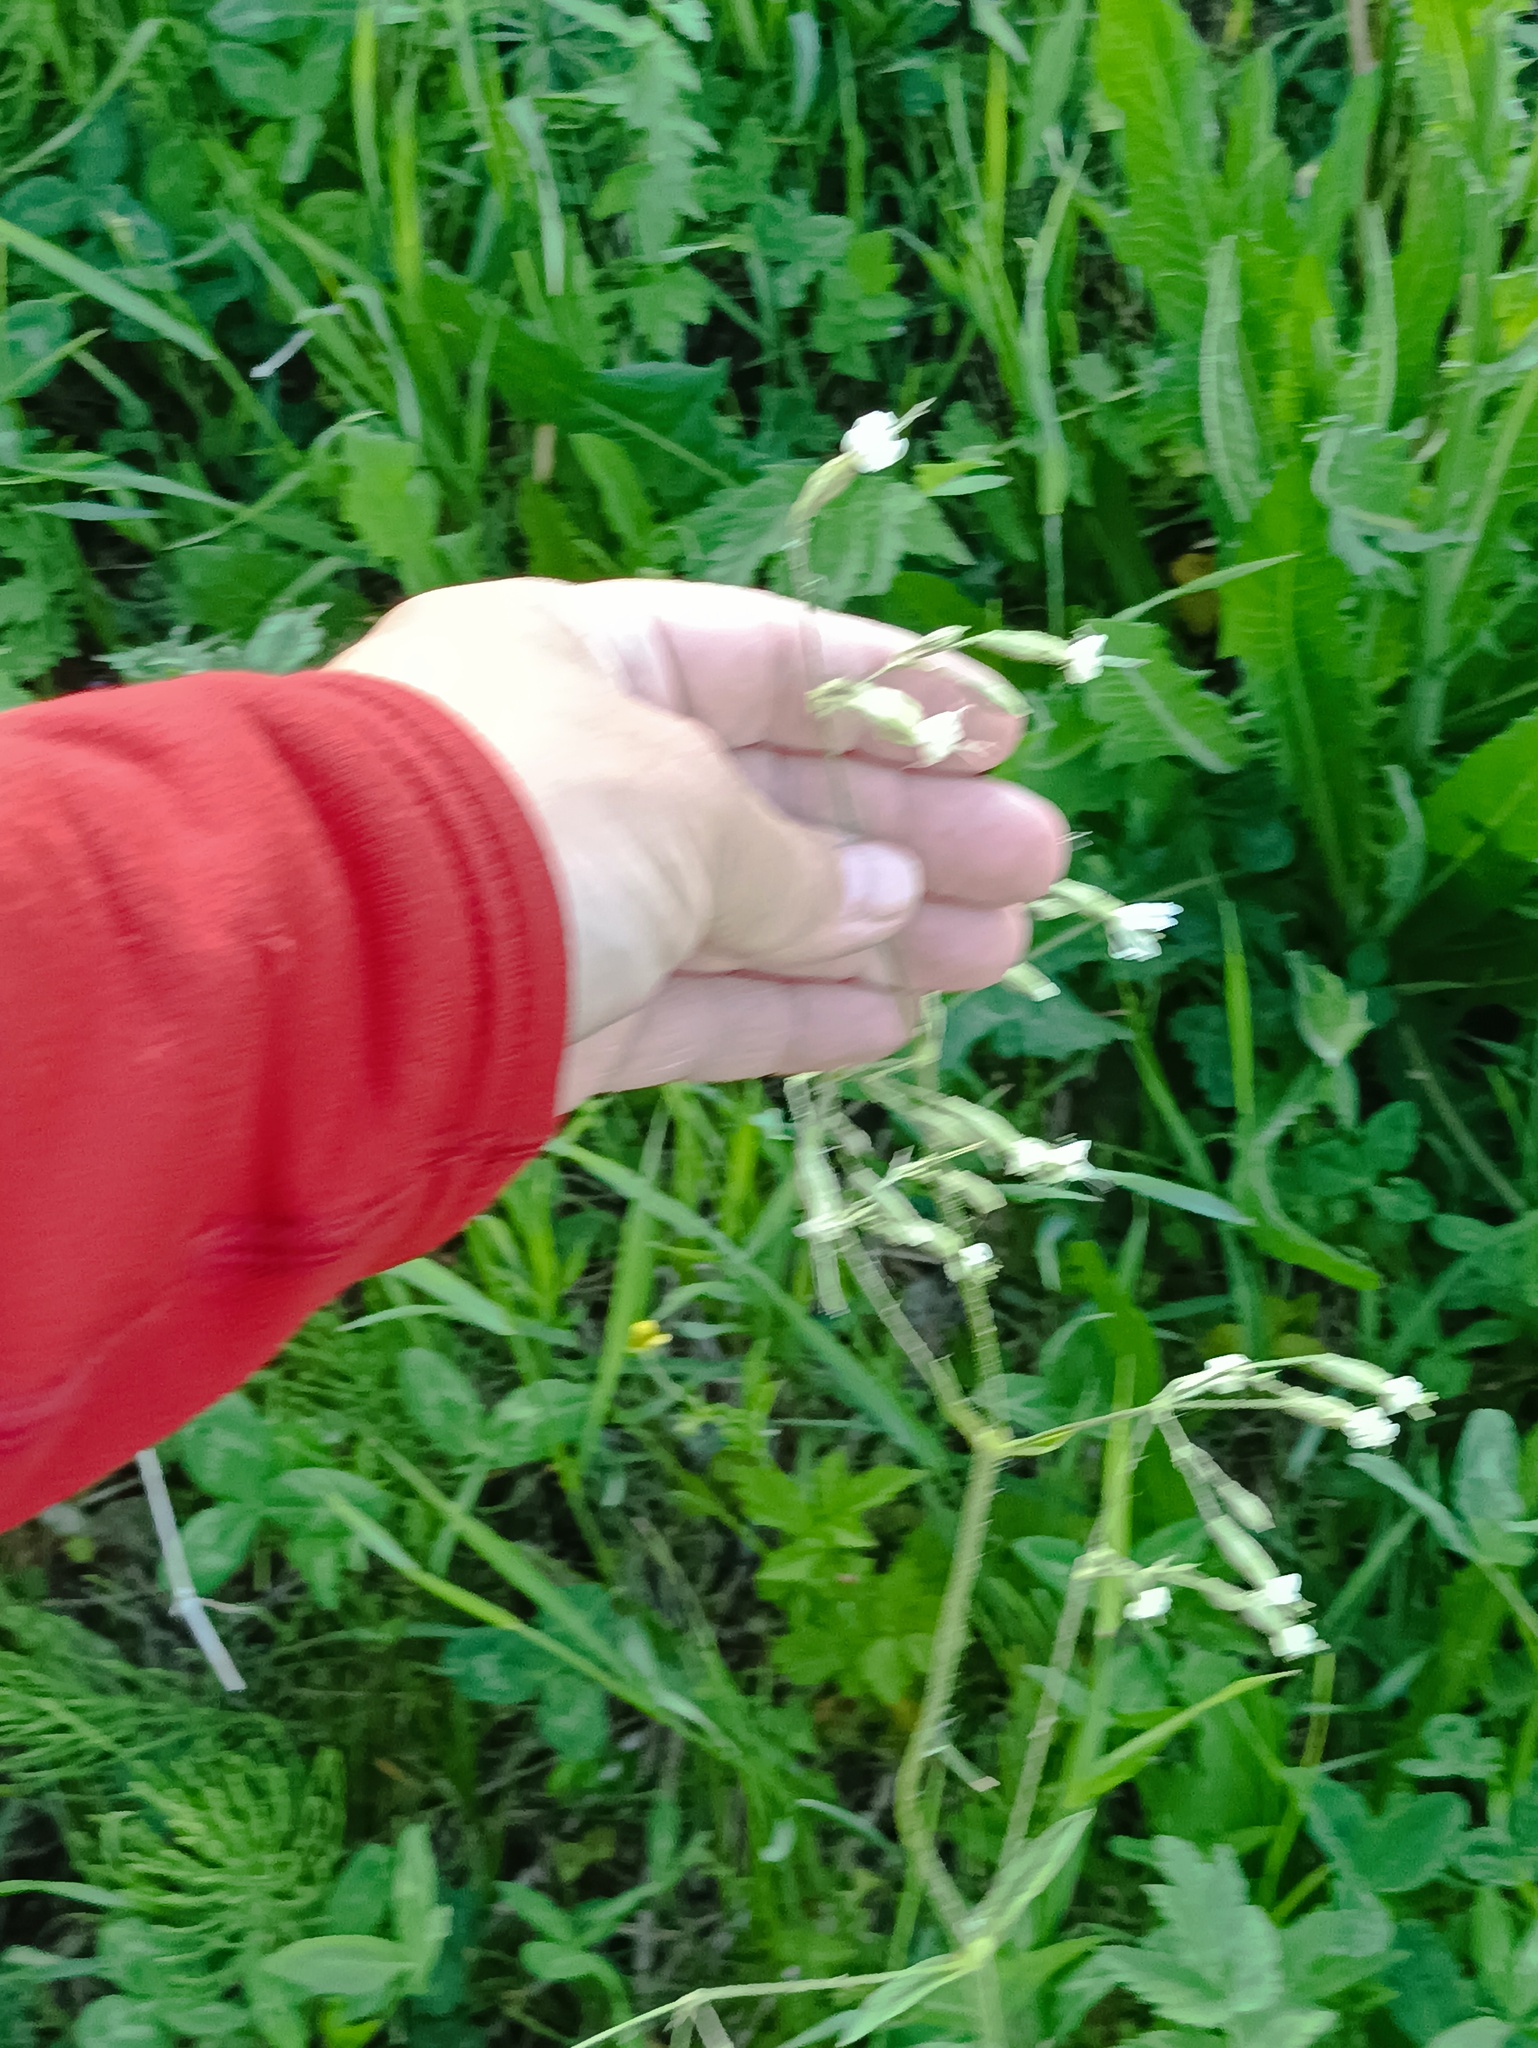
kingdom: Plantae
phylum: Tracheophyta
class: Magnoliopsida
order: Caryophyllales
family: Caryophyllaceae
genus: Silene
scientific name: Silene nutans
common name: Nottingham catchfly
